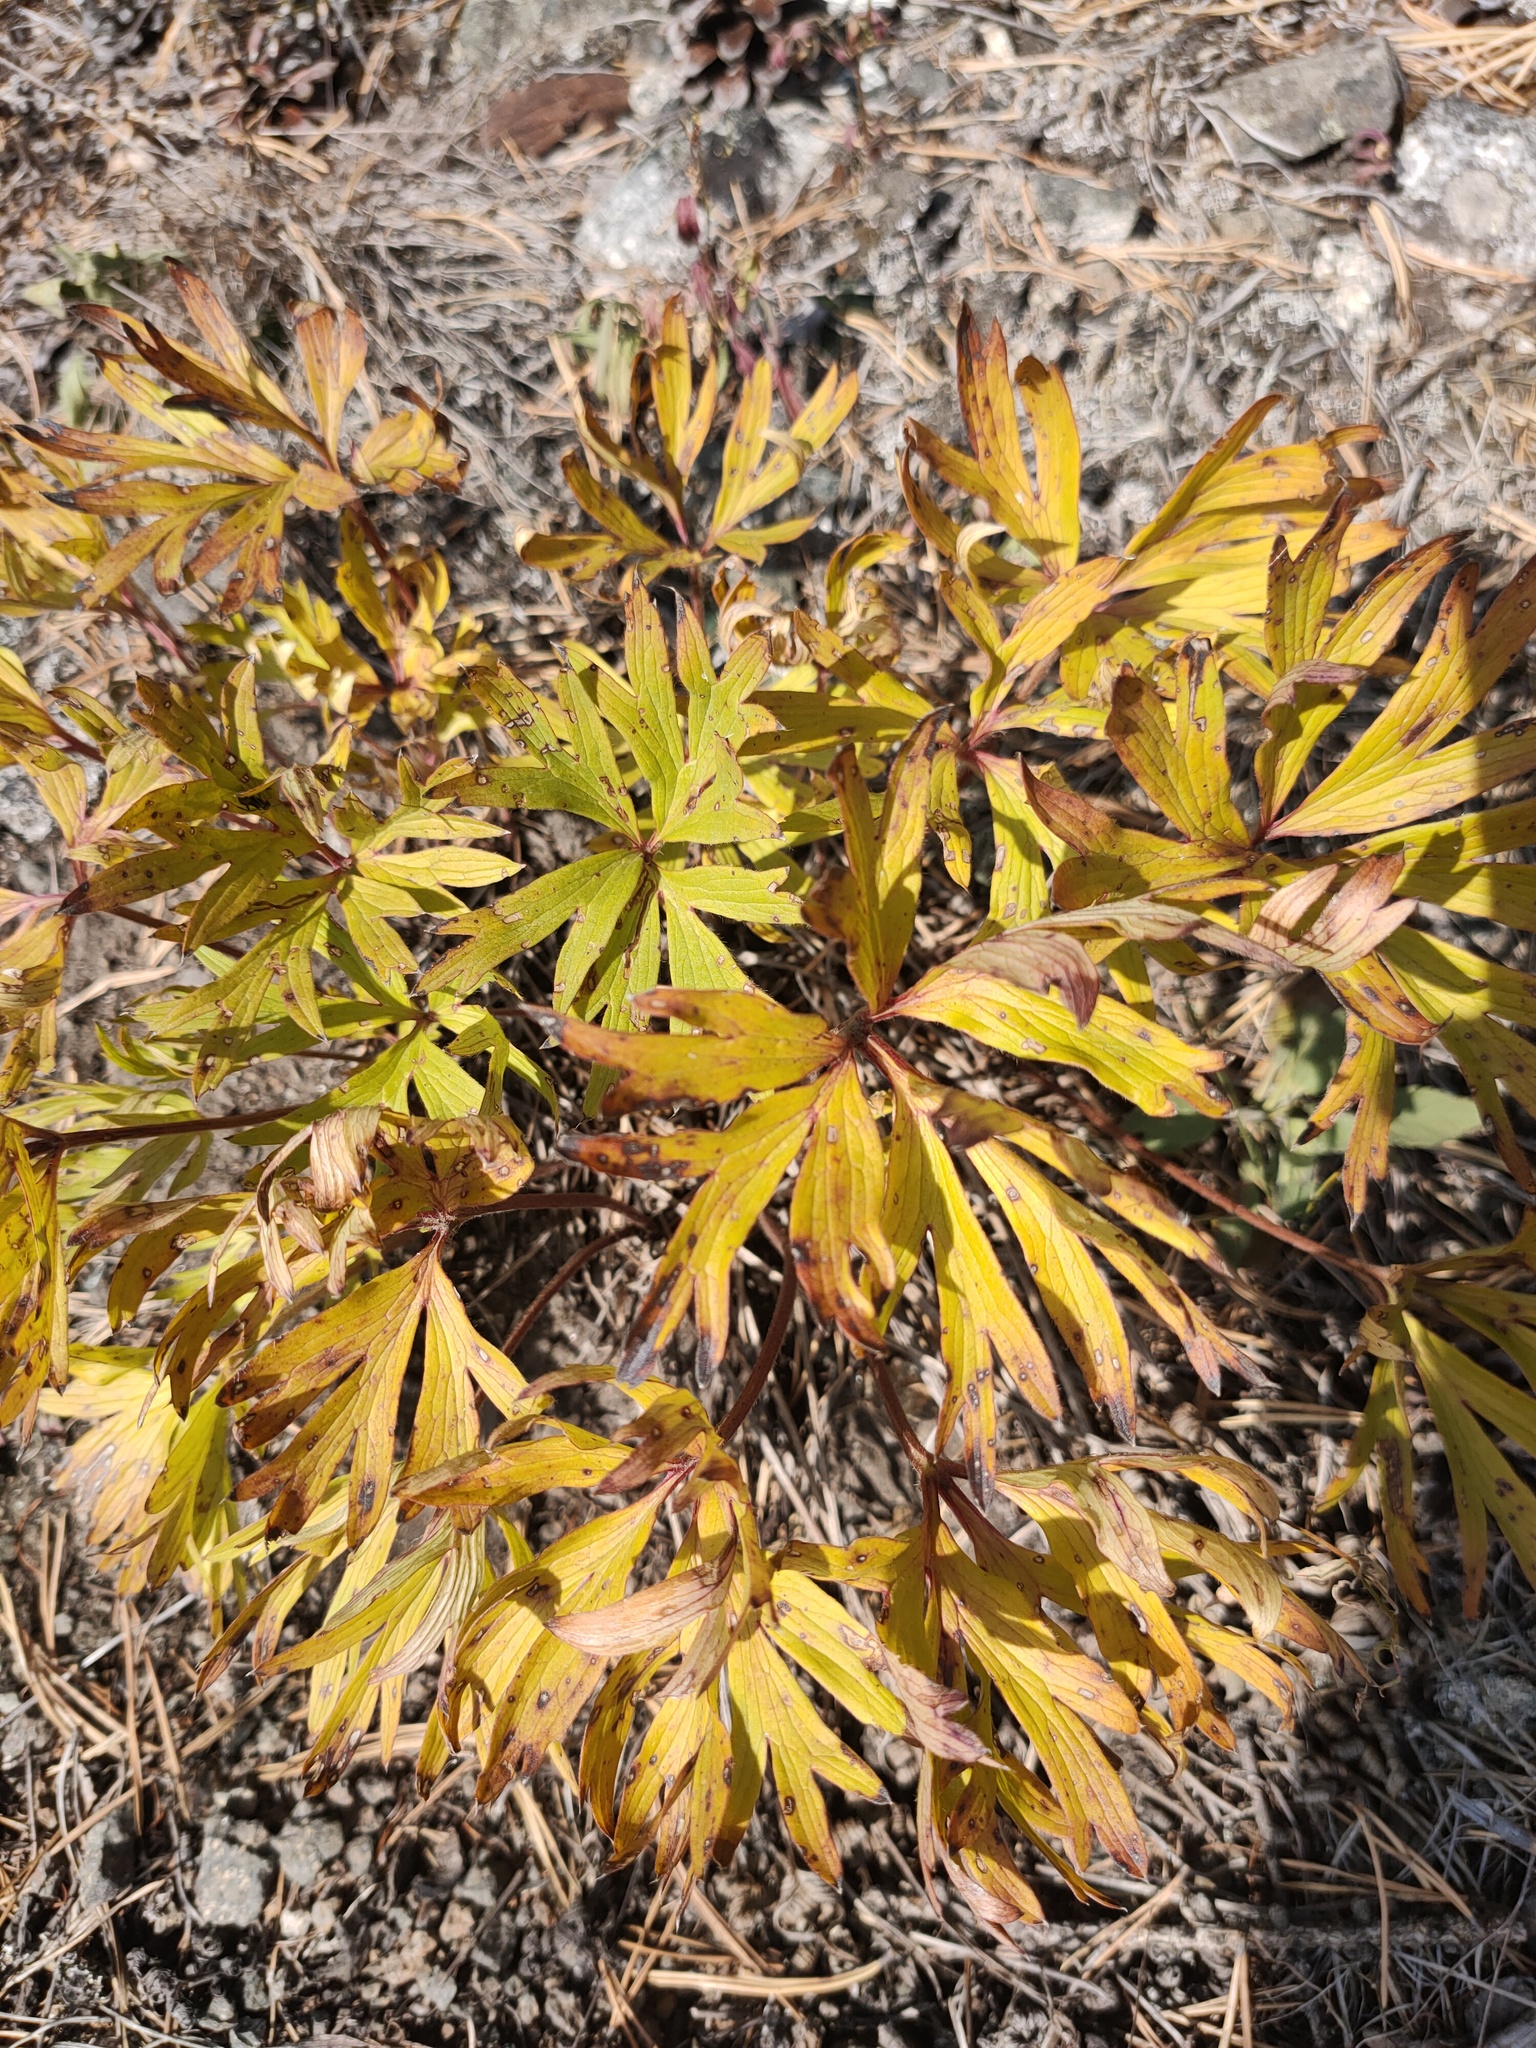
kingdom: Plantae
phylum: Tracheophyta
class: Magnoliopsida
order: Ranunculales
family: Ranunculaceae
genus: Pulsatilla
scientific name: Pulsatilla patens
